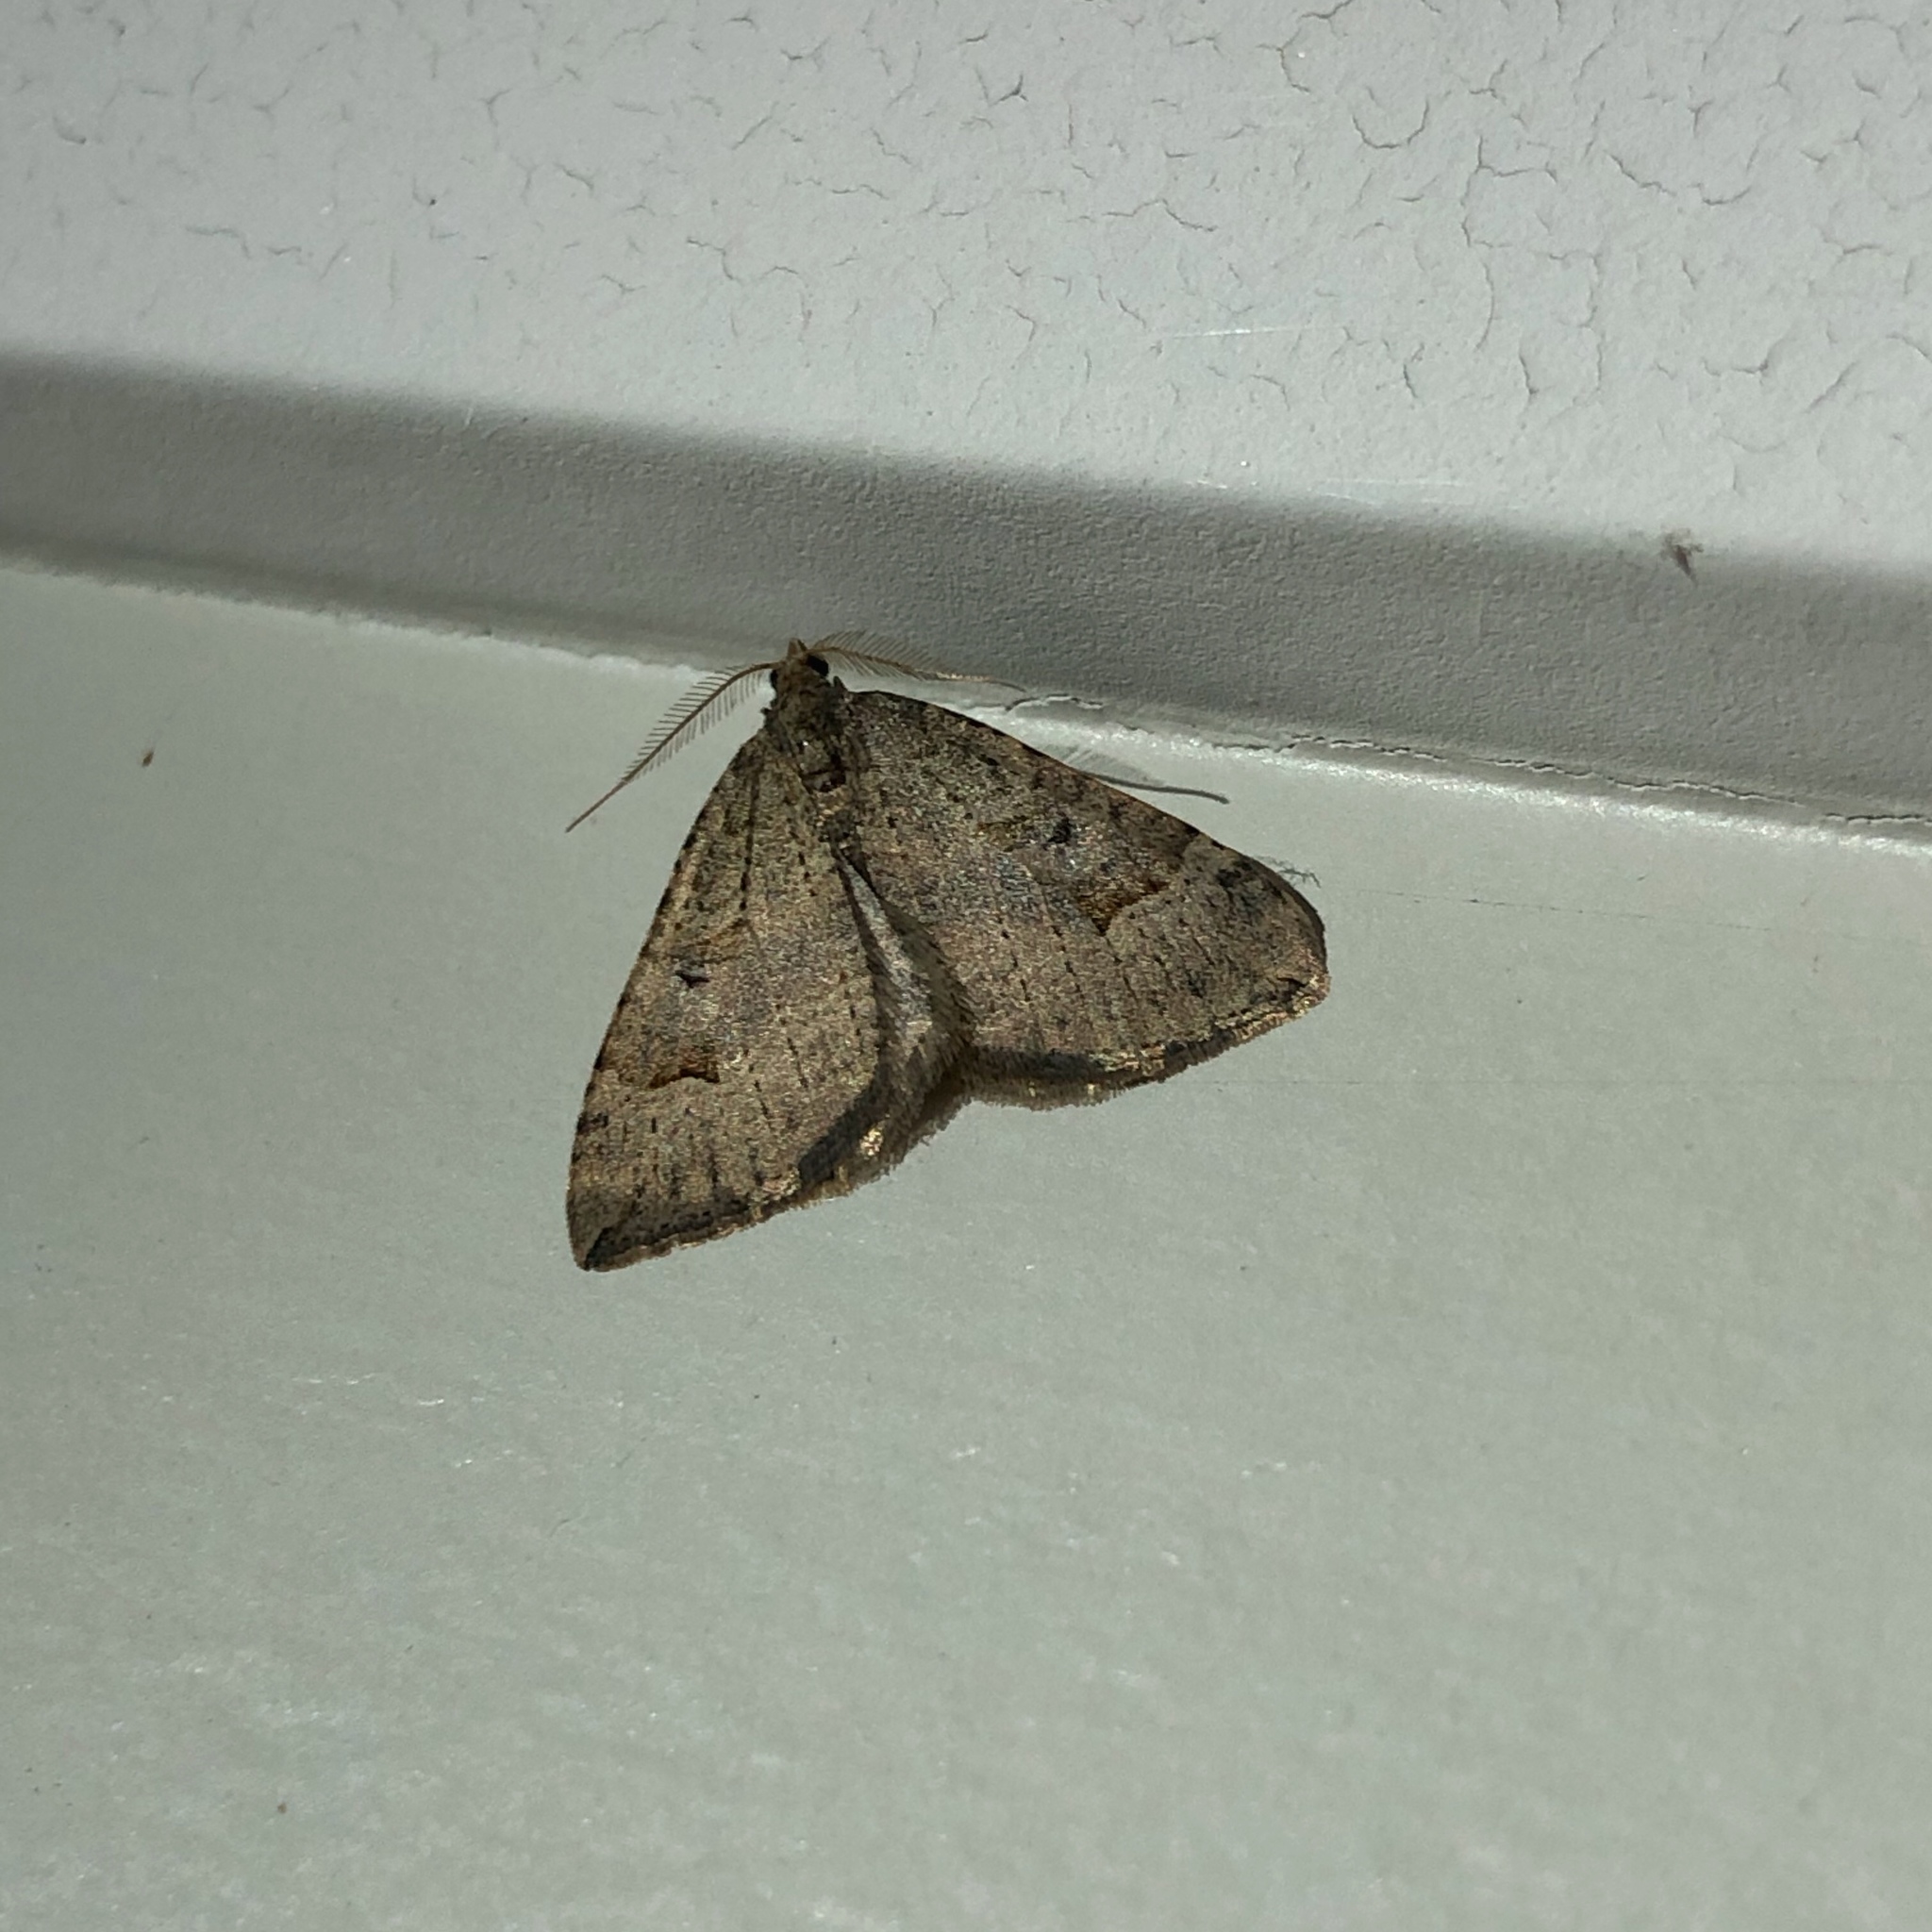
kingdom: Animalia
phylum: Arthropoda
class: Insecta
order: Lepidoptera
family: Geometridae
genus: Epyaxa
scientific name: Epyaxa rosearia
